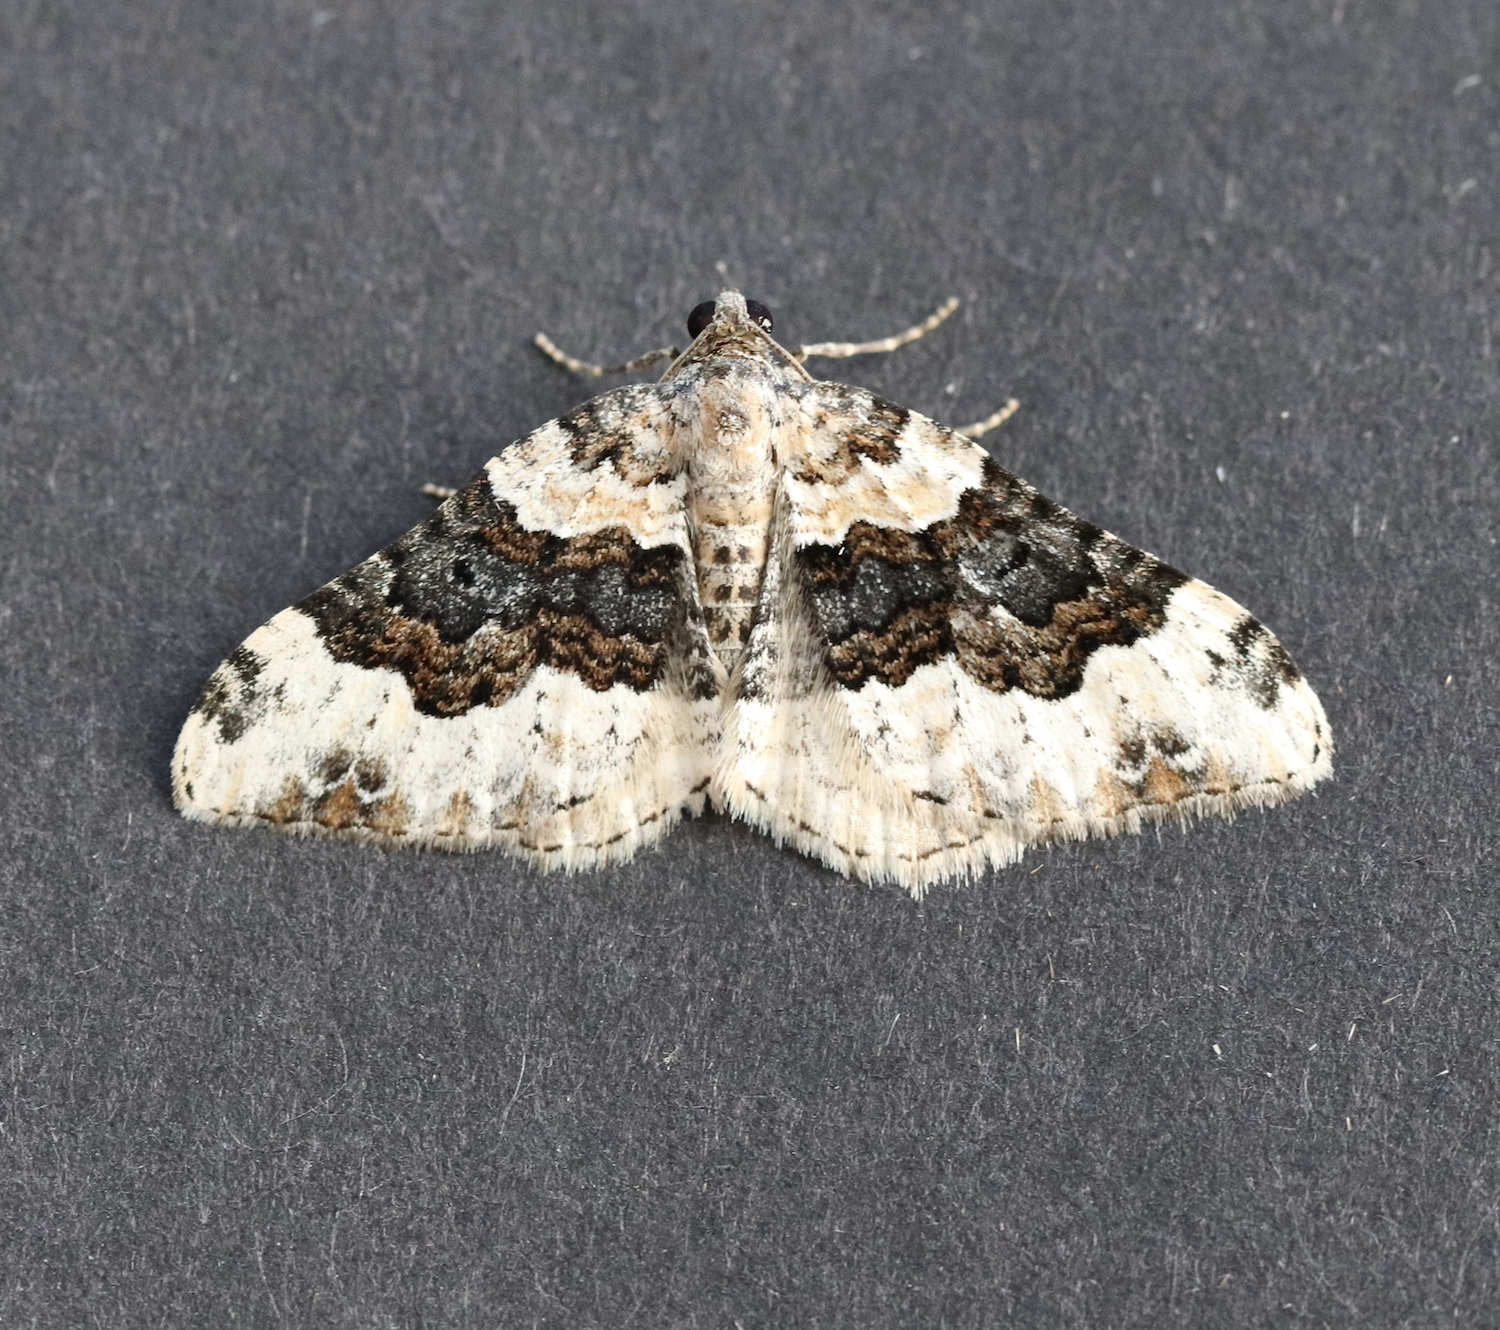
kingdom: Animalia
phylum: Arthropoda
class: Insecta
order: Lepidoptera
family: Geometridae
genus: Epirrhoe
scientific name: Epirrhoe galiata
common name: Galium carpet
